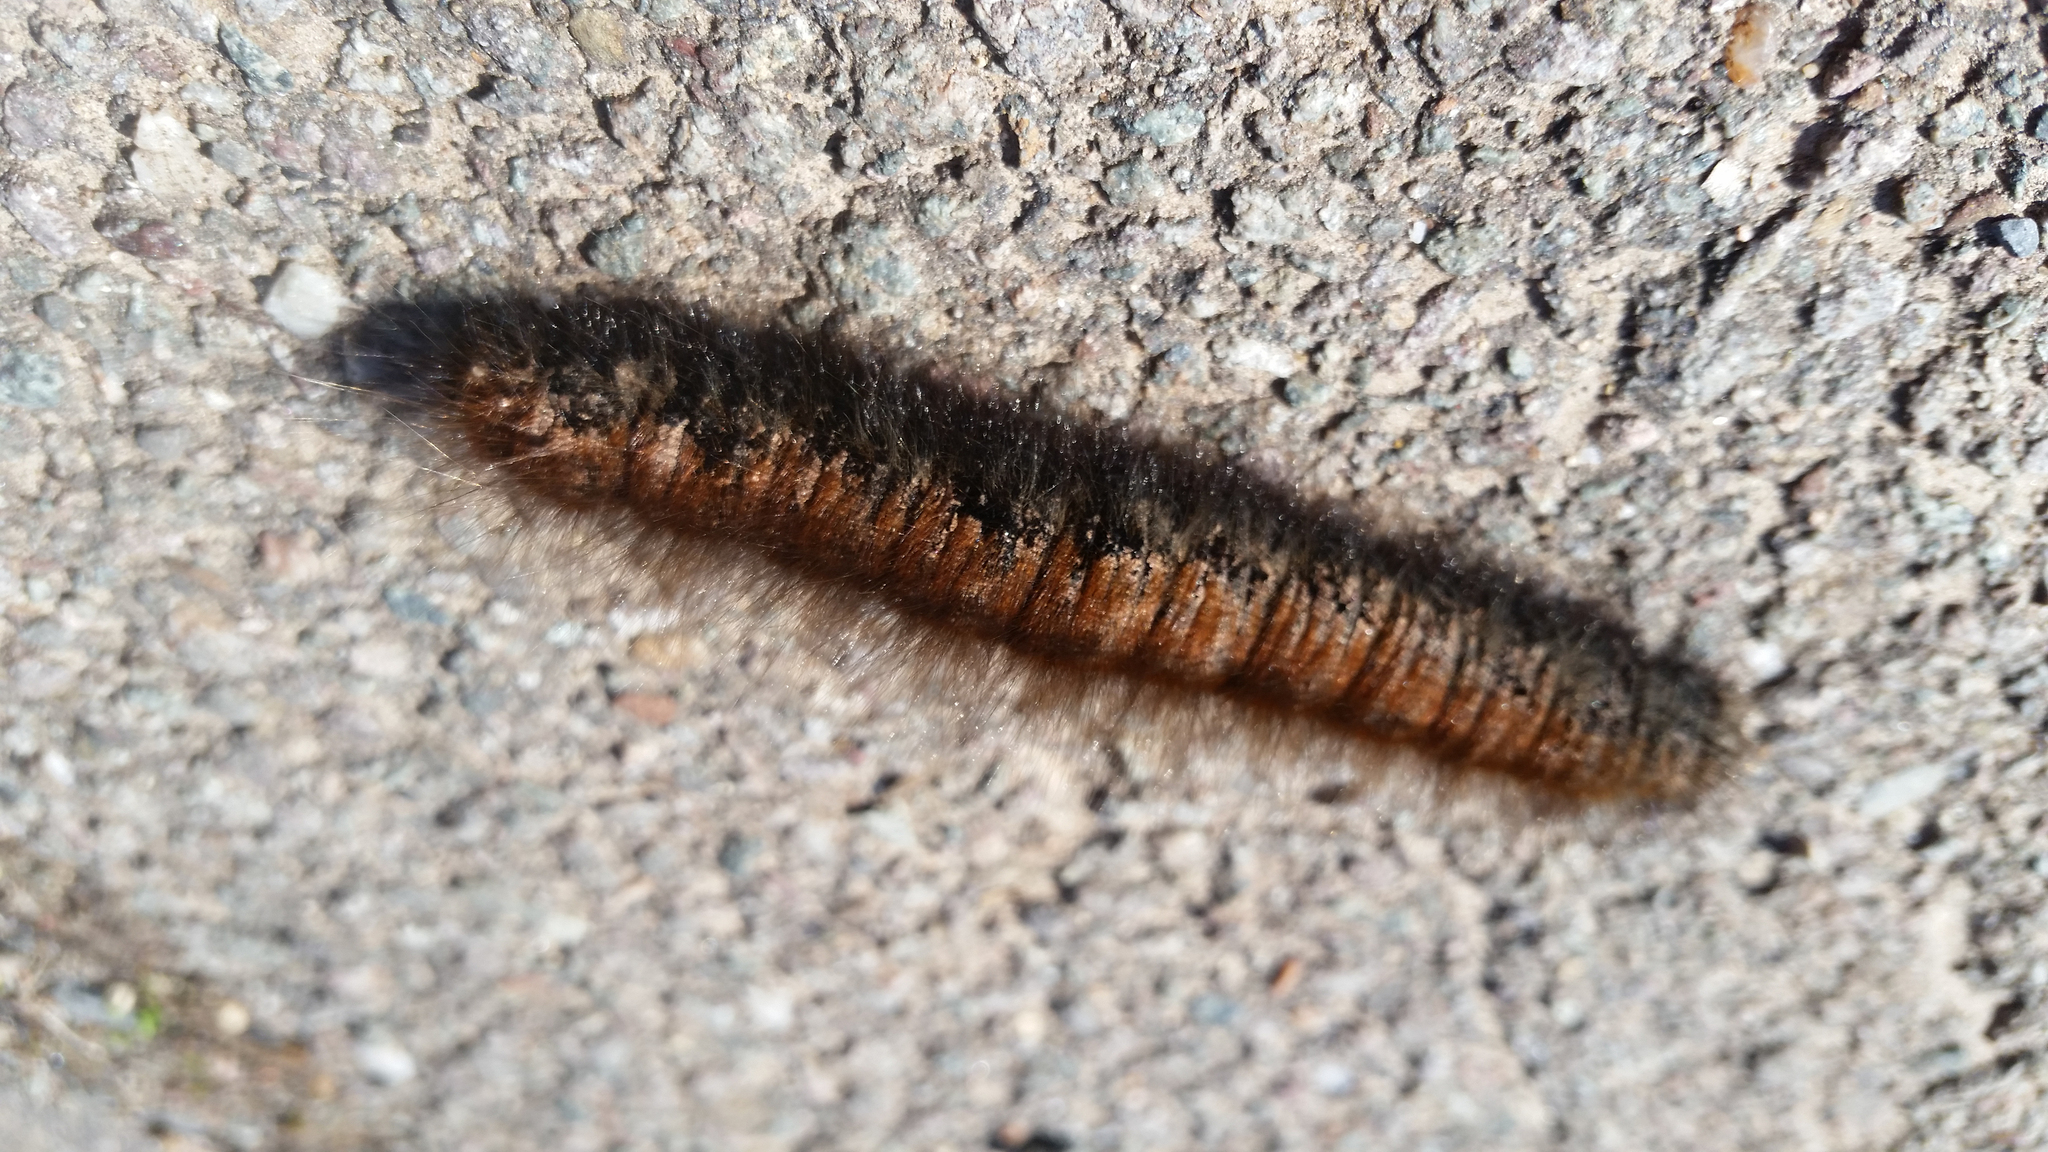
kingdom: Animalia
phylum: Arthropoda
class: Insecta
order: Lepidoptera
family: Lasiocampidae
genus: Macrothylacia
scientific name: Macrothylacia rubi
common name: Fox moth
